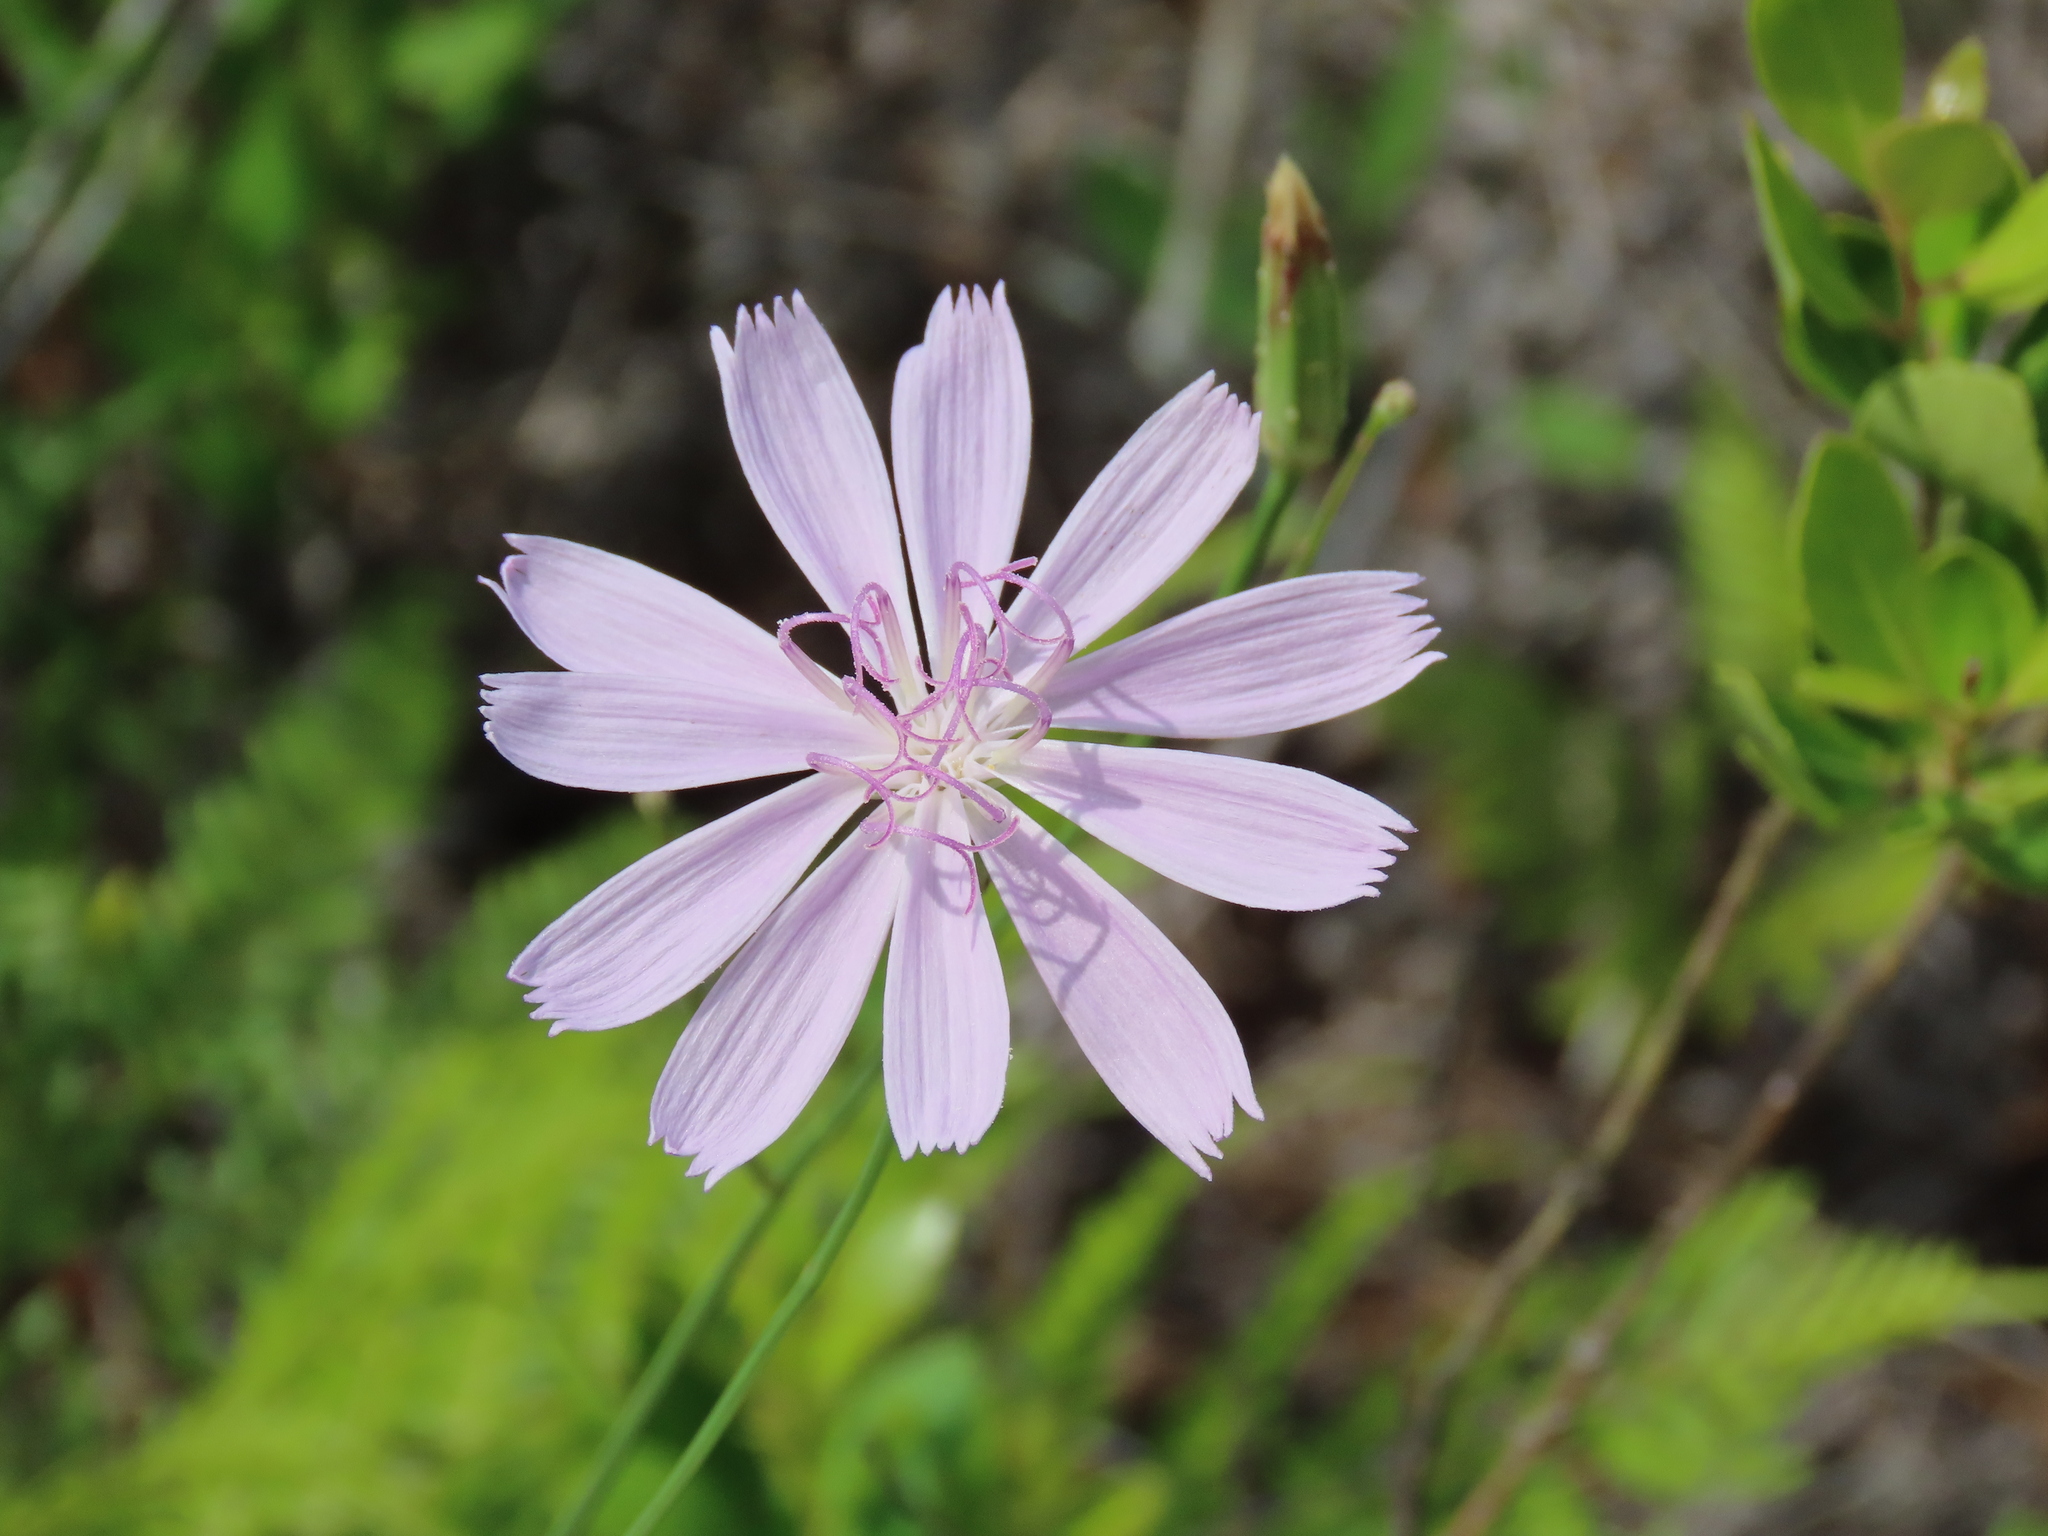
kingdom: Plantae
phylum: Tracheophyta
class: Magnoliopsida
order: Asterales
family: Asteraceae
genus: Lygodesmia
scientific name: Lygodesmia aphylla
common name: Rose-rush
